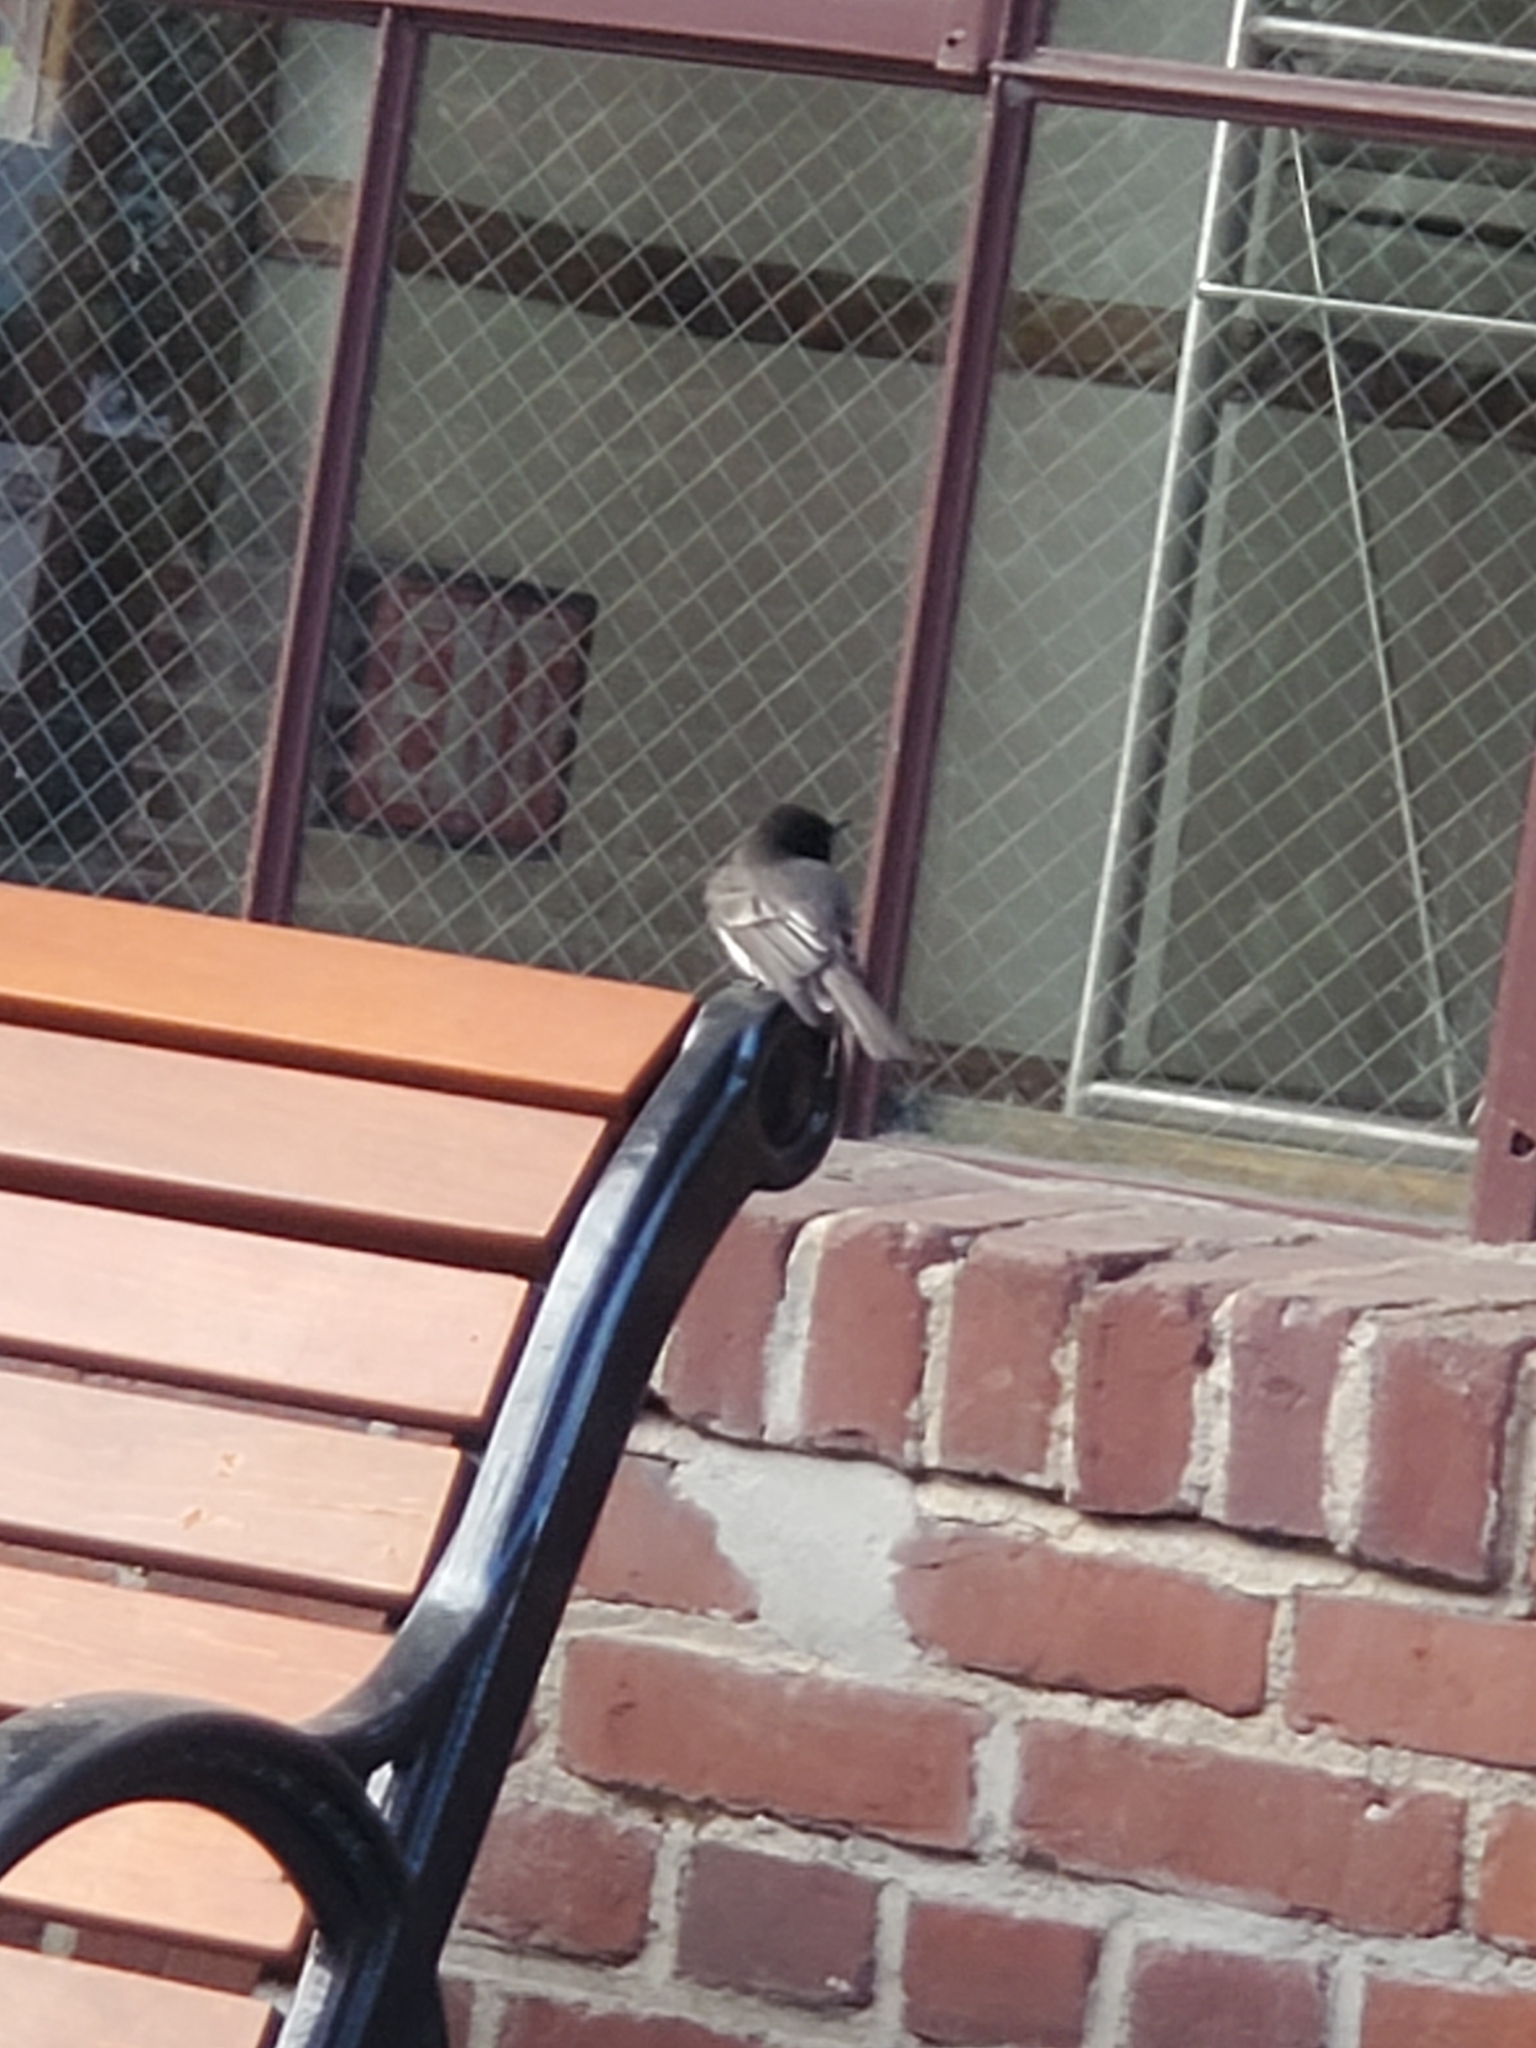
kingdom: Animalia
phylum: Chordata
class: Aves
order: Passeriformes
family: Tyrannidae
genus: Sayornis
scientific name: Sayornis nigricans
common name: Black phoebe
